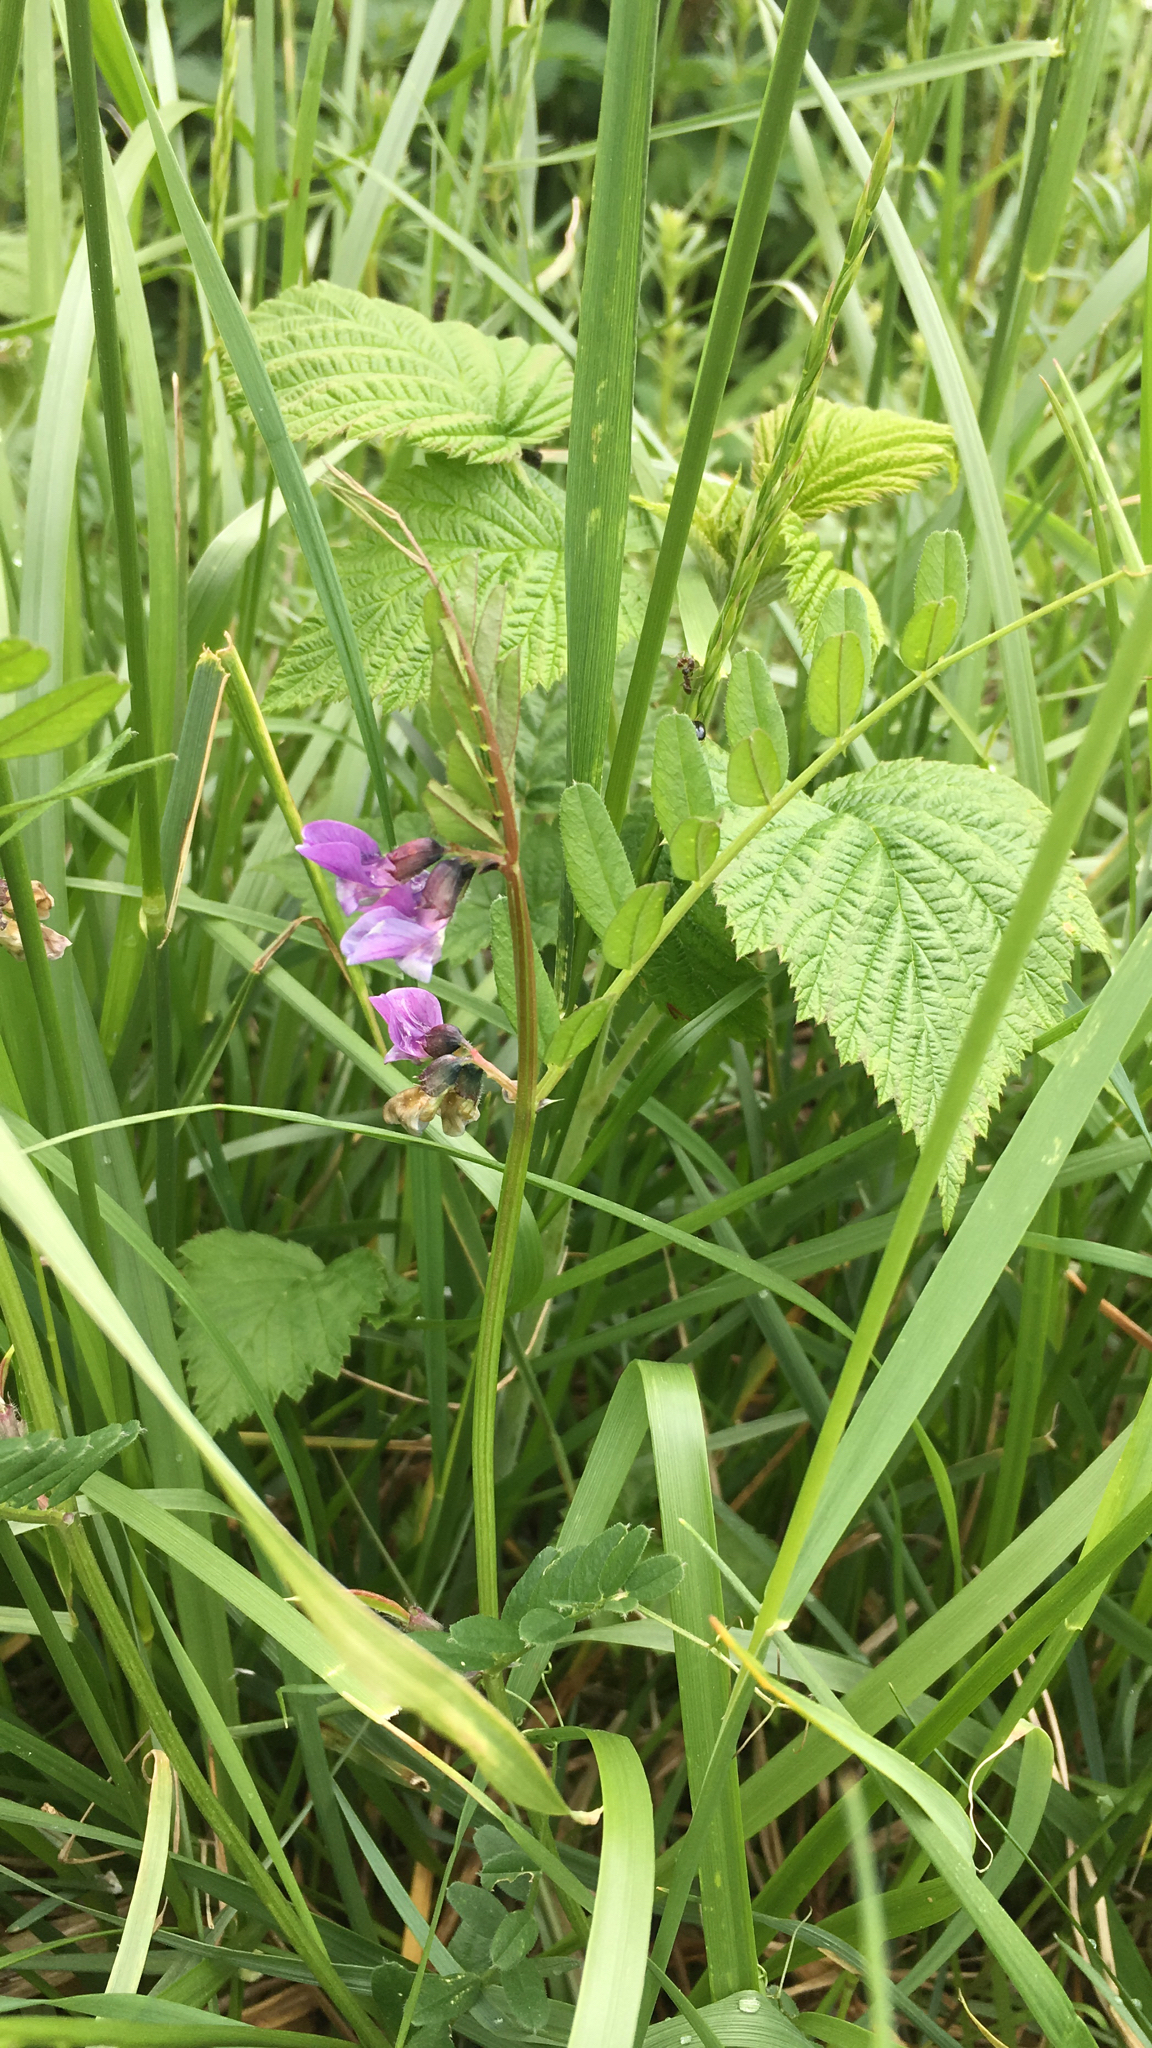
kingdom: Plantae
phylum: Tracheophyta
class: Magnoliopsida
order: Fabales
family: Fabaceae
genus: Vicia
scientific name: Vicia sepium
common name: Bush vetch
